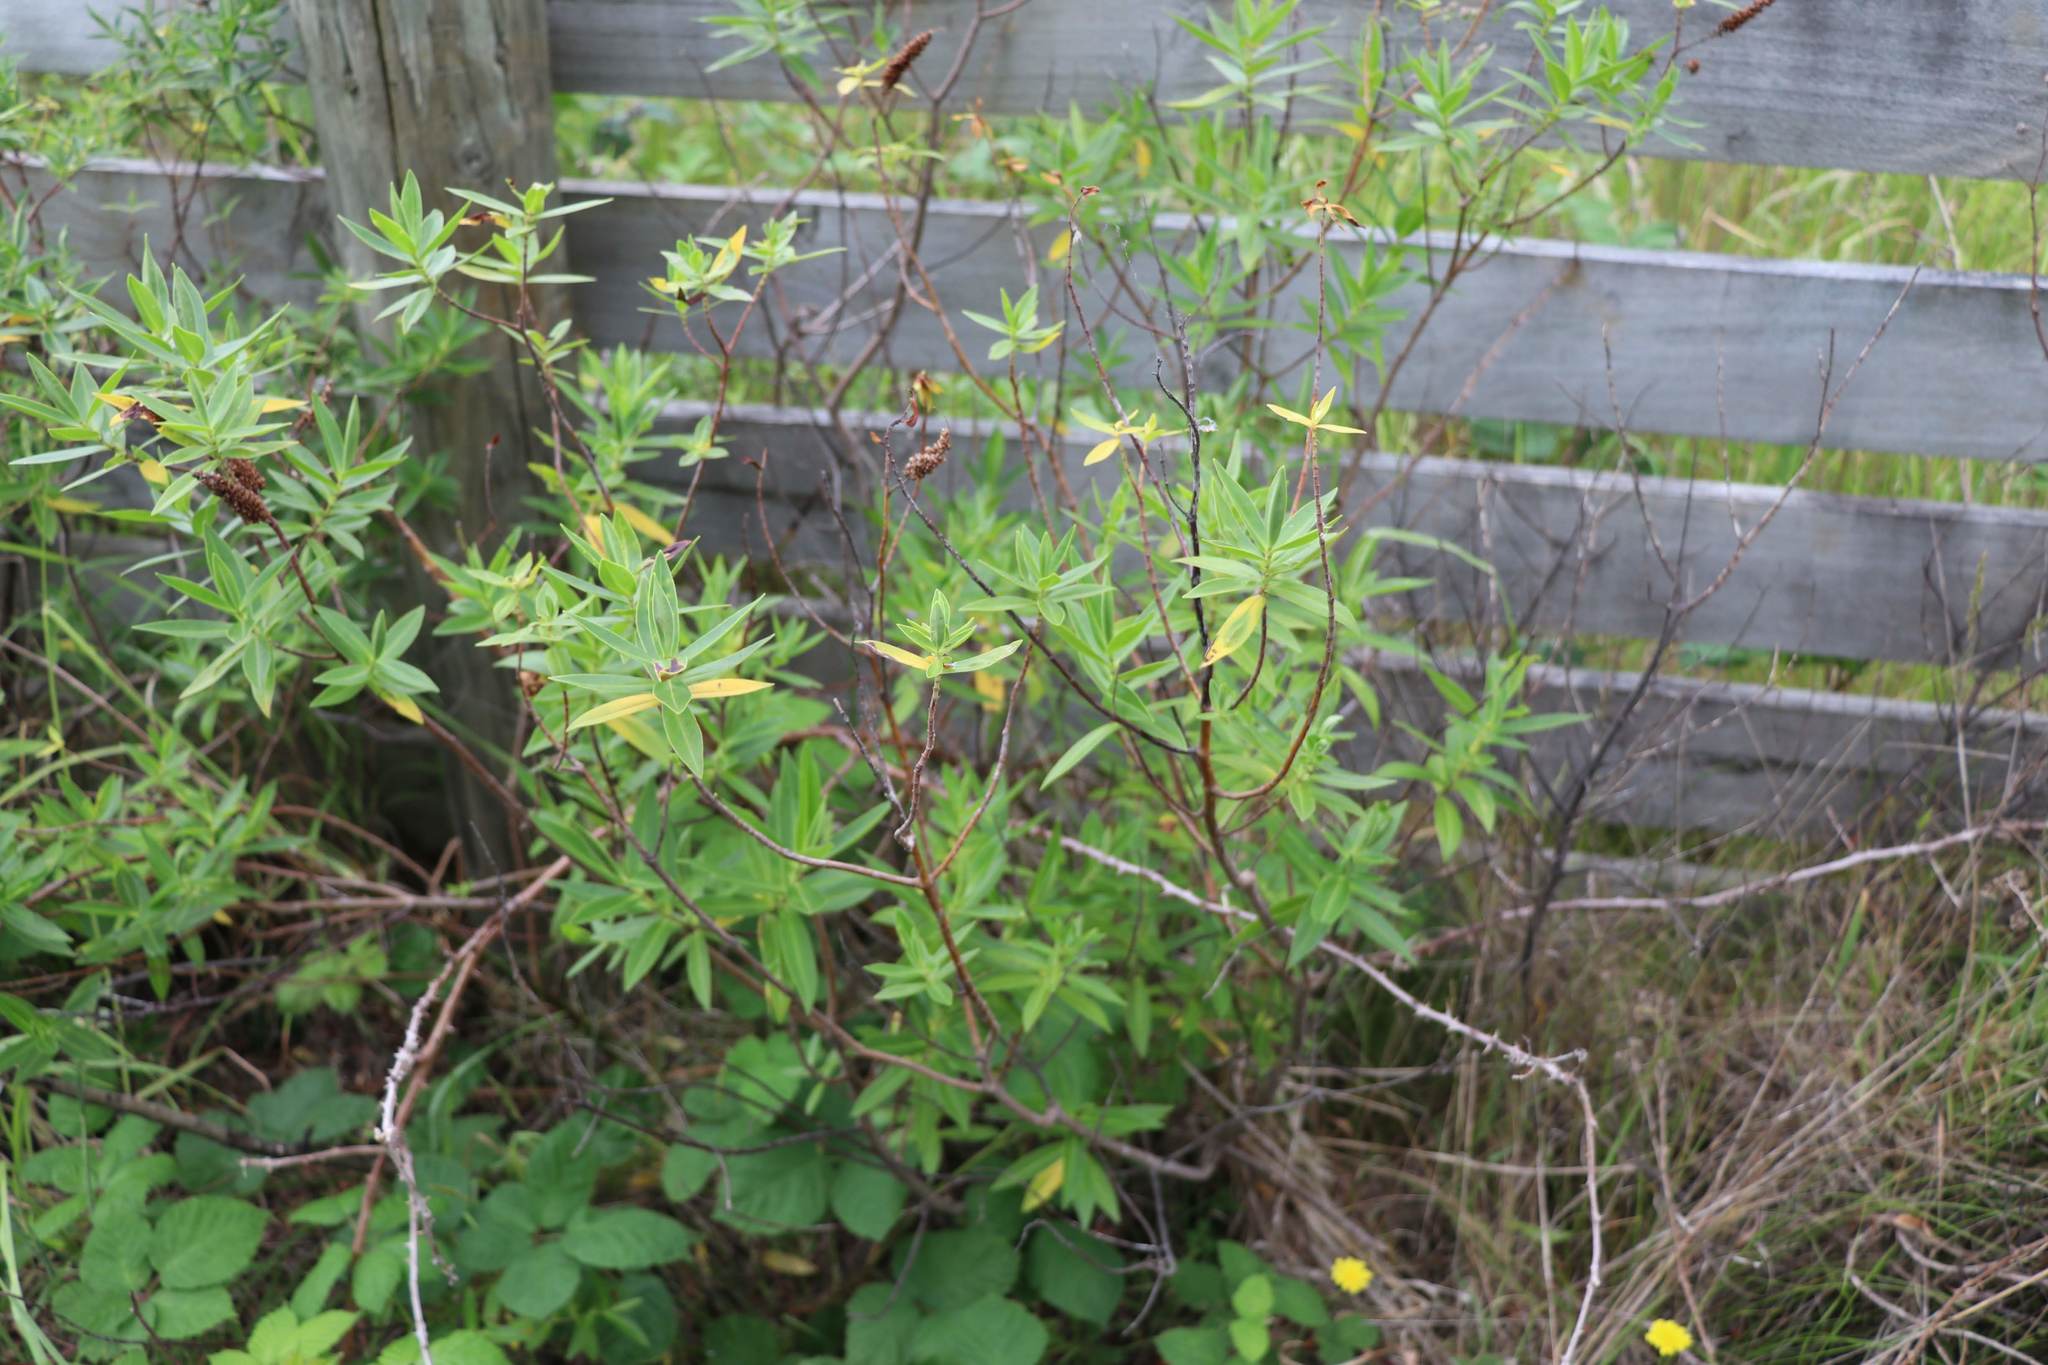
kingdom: Plantae
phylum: Tracheophyta
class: Magnoliopsida
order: Lamiales
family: Plantaginaceae
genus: Veronica
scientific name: Veronica stricta
